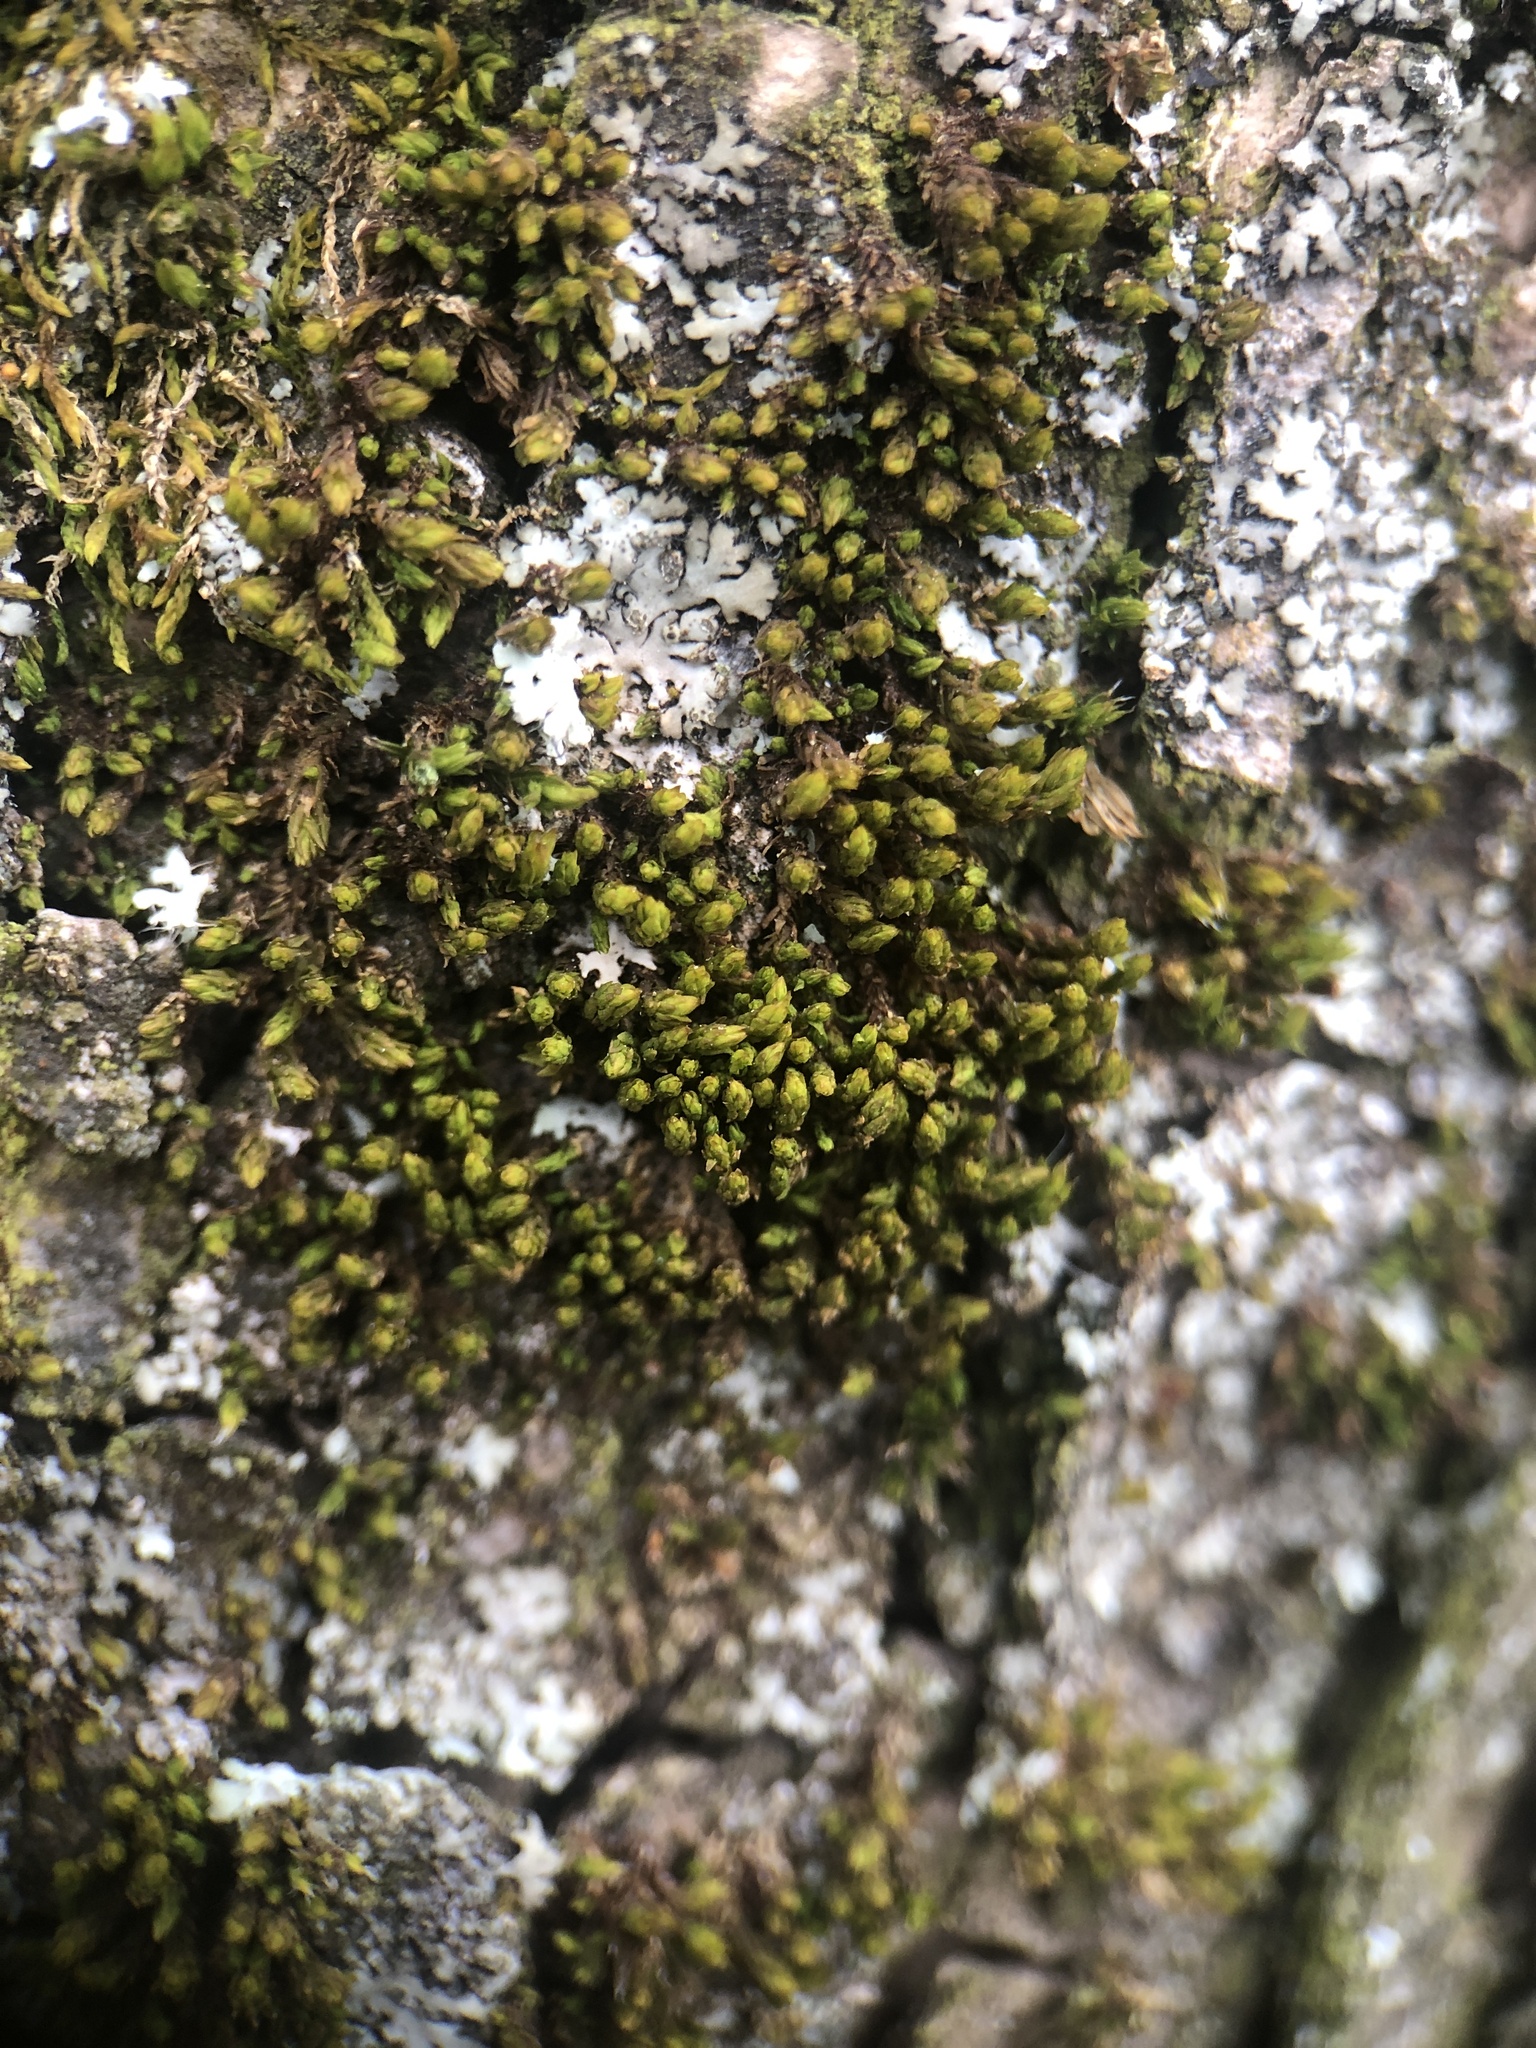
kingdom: Plantae
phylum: Bryophyta
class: Bryopsida
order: Orthotrichales
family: Orthotrichaceae
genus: Nyholmiella
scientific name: Nyholmiella obtusifolia
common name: Blunt-leaved bristle-moss
